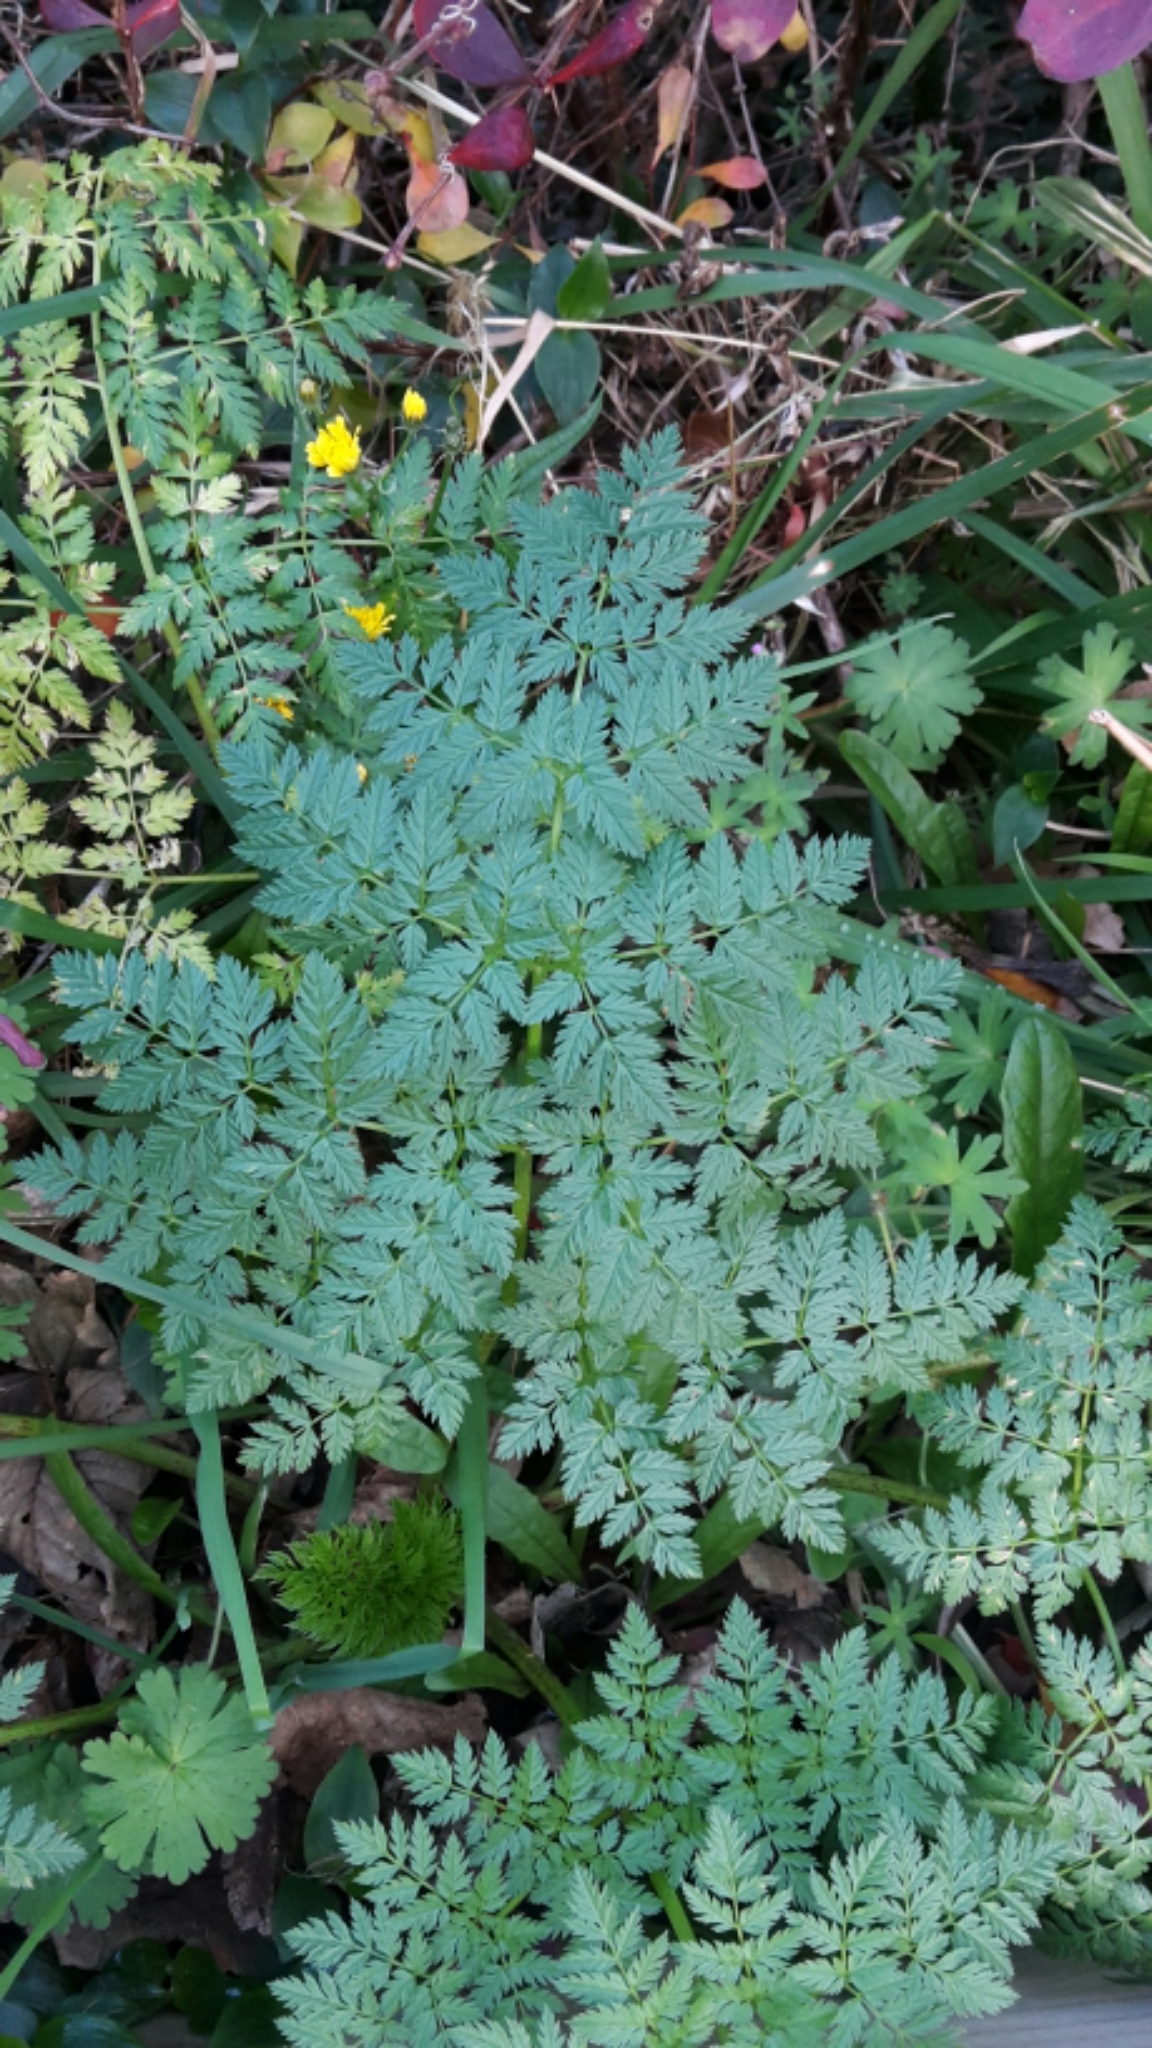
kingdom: Plantae
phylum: Tracheophyta
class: Magnoliopsida
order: Apiales
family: Apiaceae
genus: Conium
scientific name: Conium maculatum
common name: Hemlock
